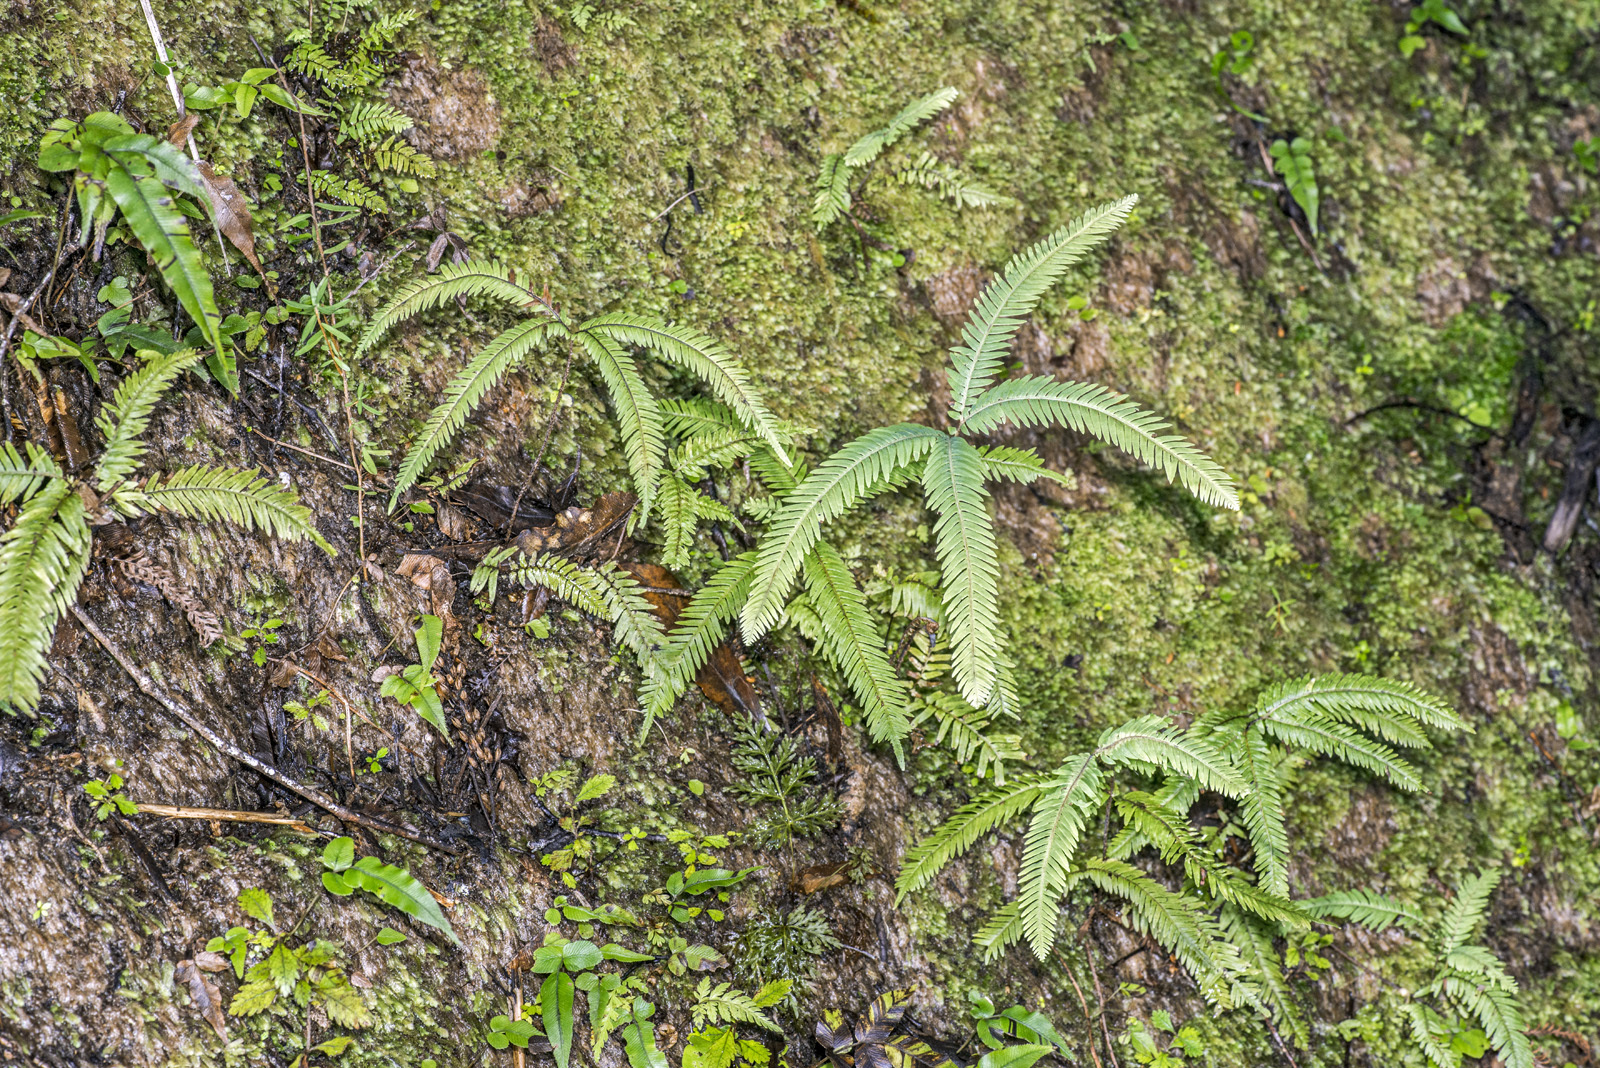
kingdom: Plantae
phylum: Tracheophyta
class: Polypodiopsida
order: Gleicheniales
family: Gleicheniaceae
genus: Sticherus
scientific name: Sticherus cunninghamii
